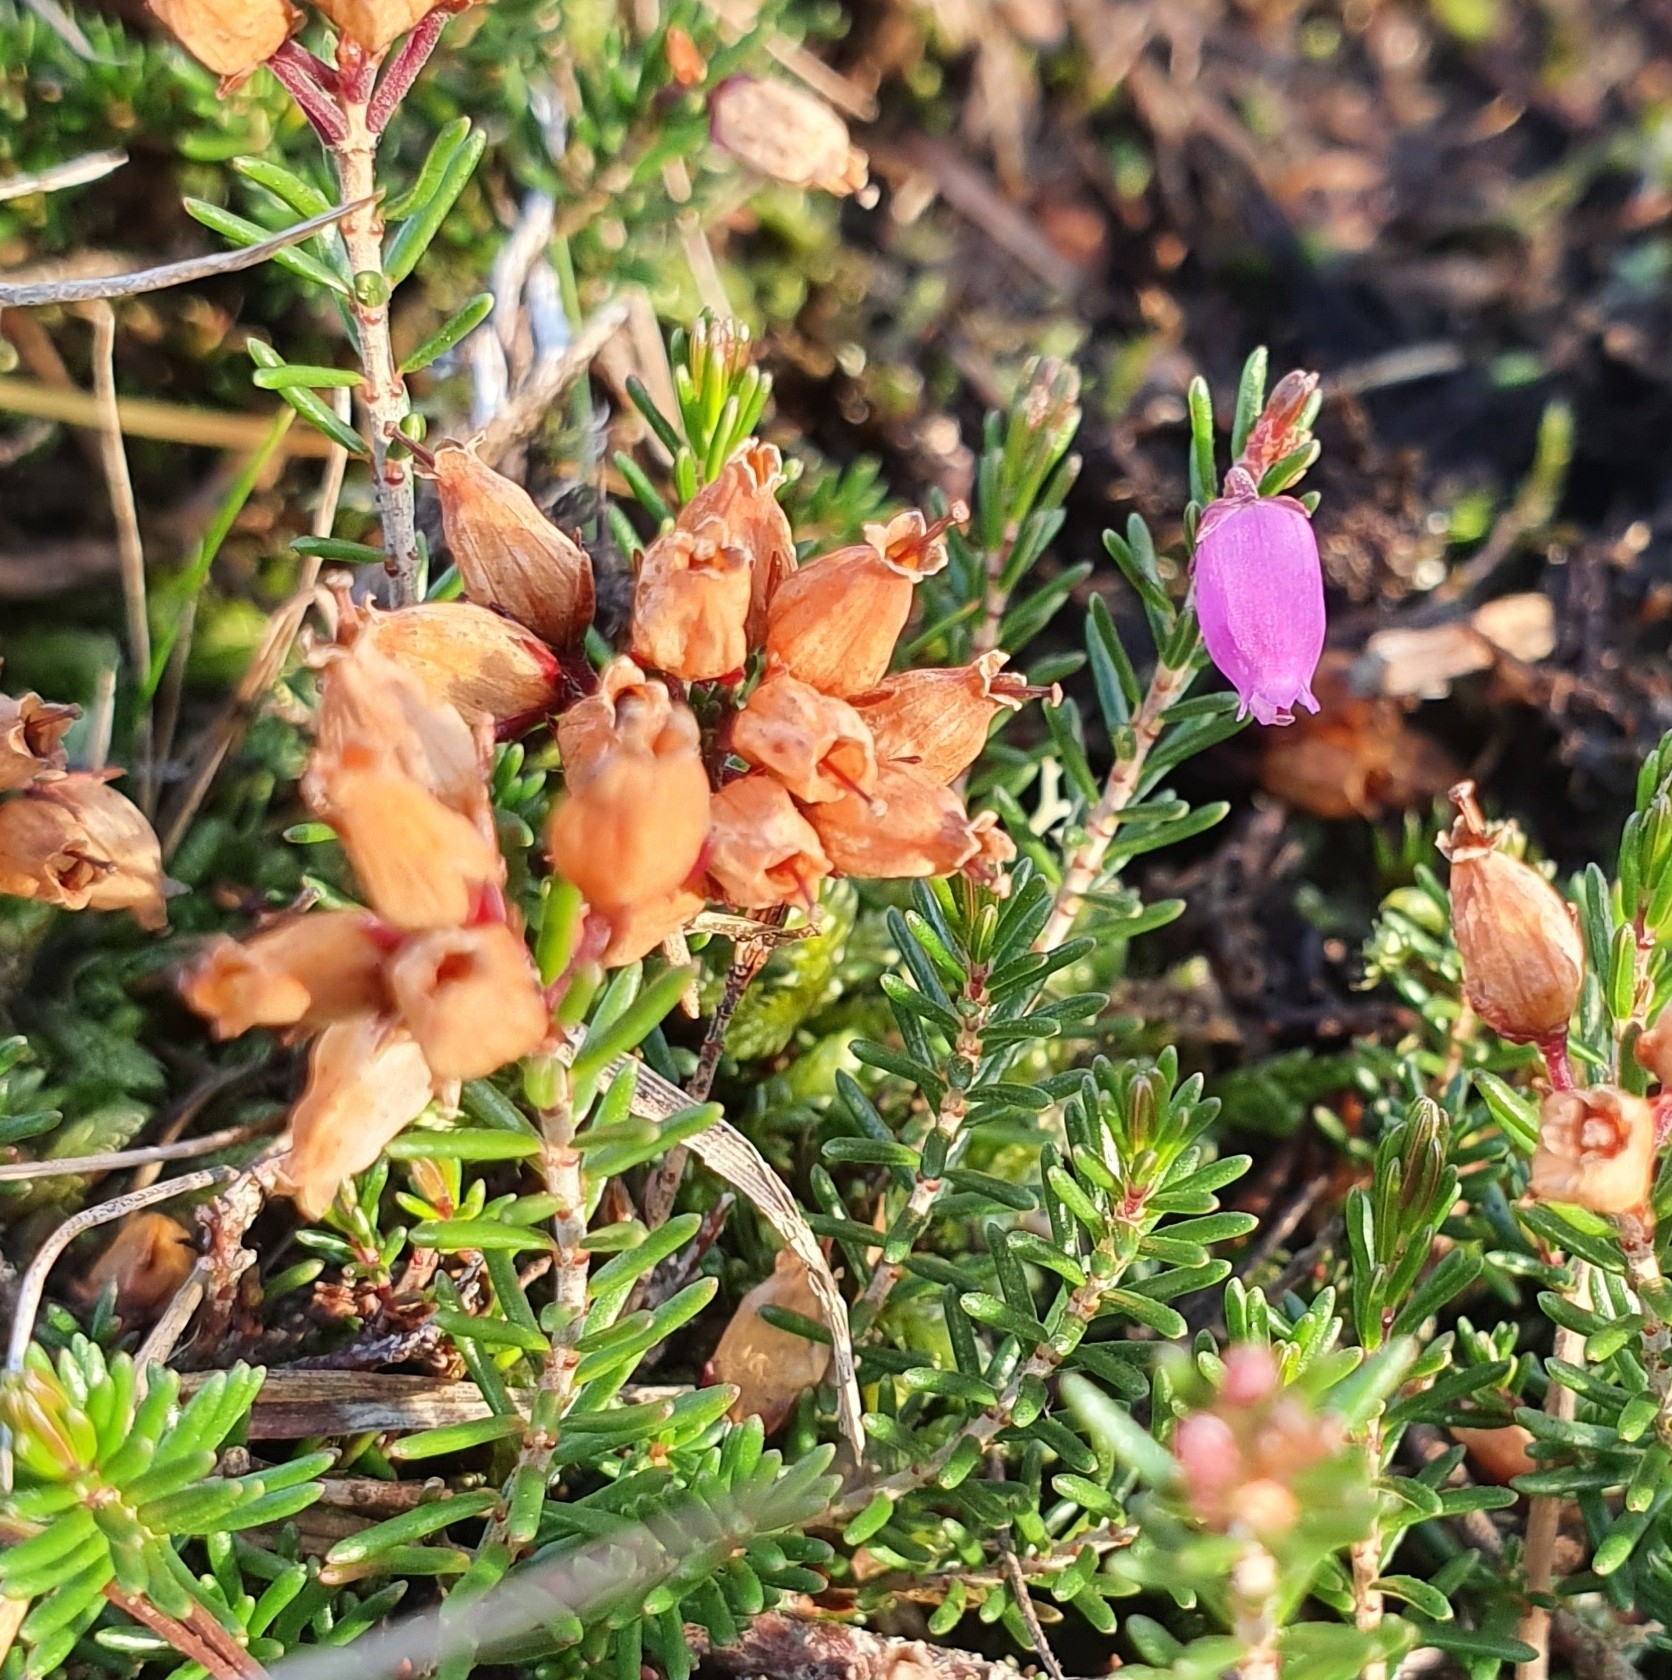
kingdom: Plantae
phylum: Tracheophyta
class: Magnoliopsida
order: Ericales
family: Ericaceae
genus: Erica
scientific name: Erica cinerea
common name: Bell heather
